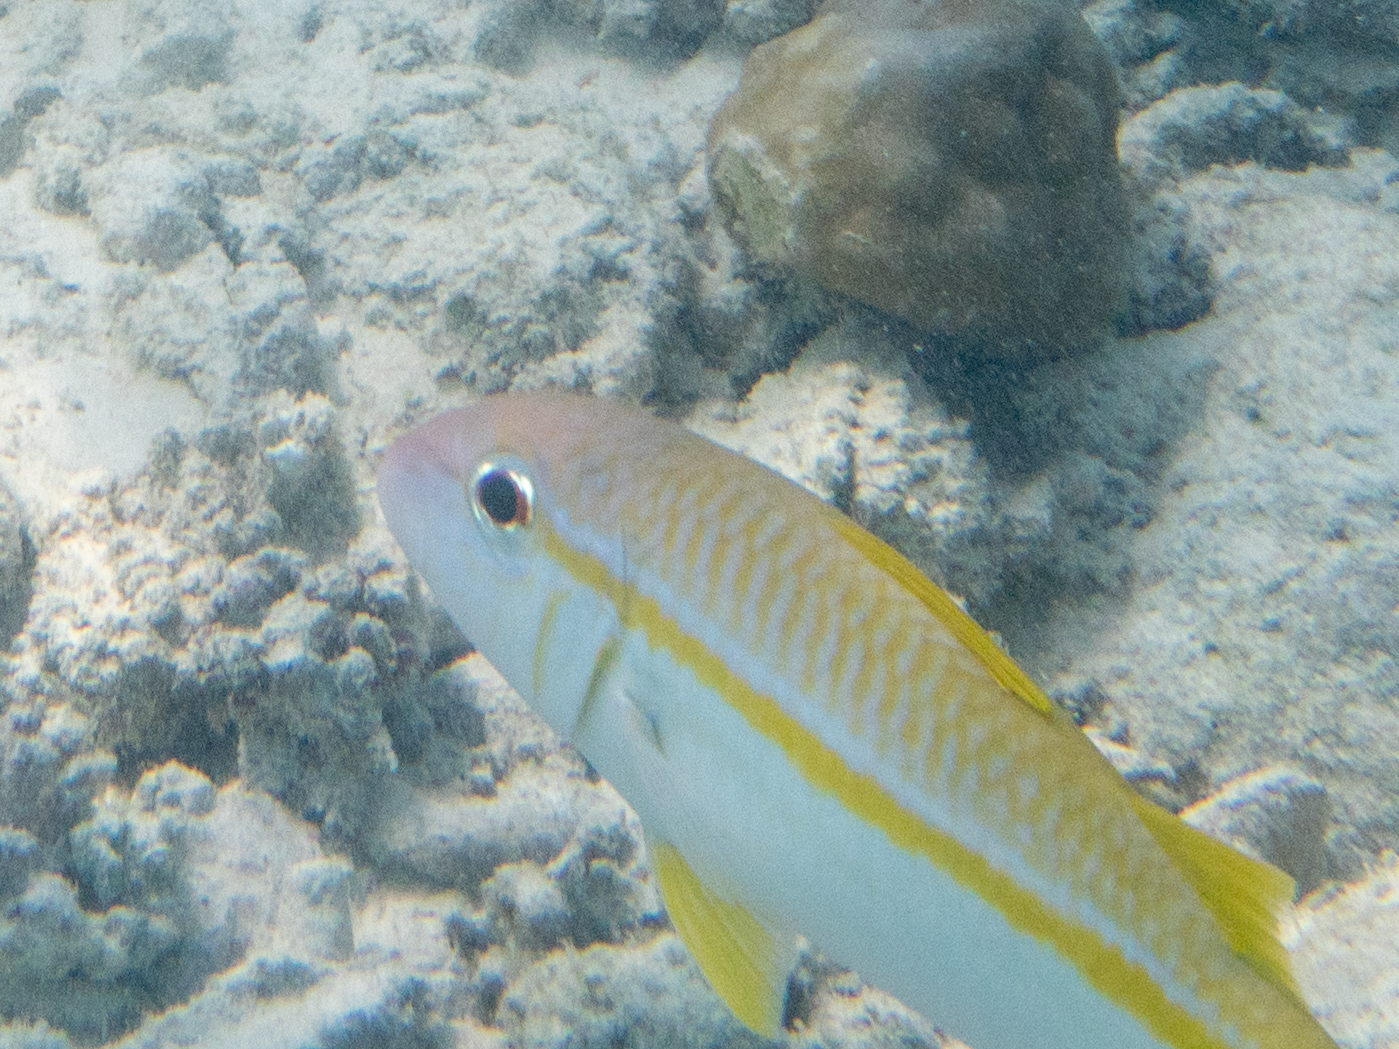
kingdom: Animalia
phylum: Chordata
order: Perciformes
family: Mullidae
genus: Mulloidichthys
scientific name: Mulloidichthys vanicolensis
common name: Yellowfin goatfish
